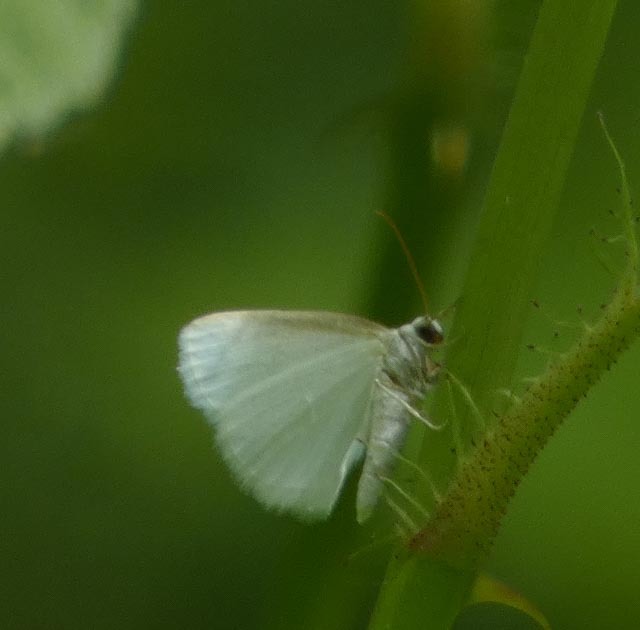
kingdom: Animalia
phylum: Arthropoda
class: Insecta
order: Lepidoptera
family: Geometridae
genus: Lomographa
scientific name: Lomographa vestaliata
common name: White spring moth
